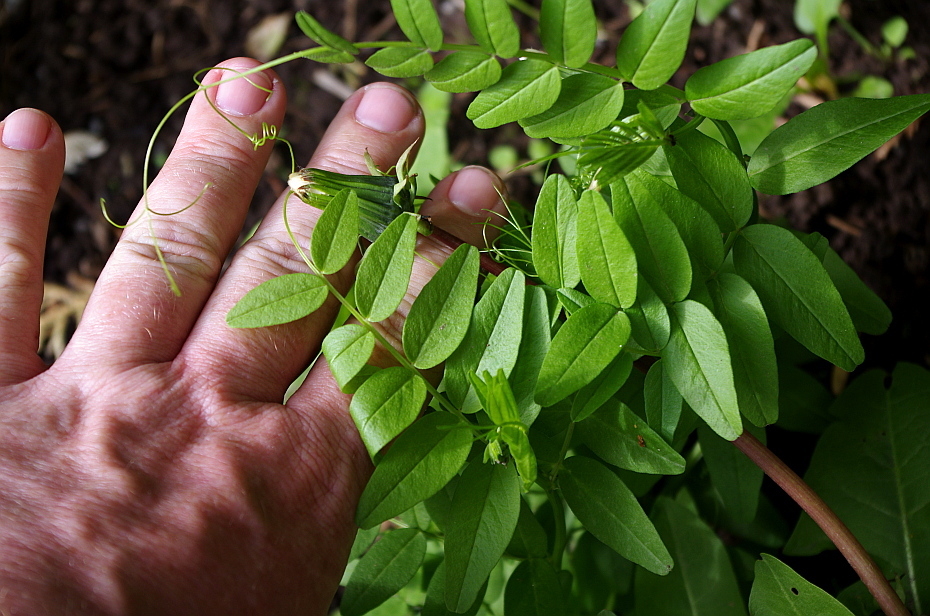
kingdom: Plantae
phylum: Tracheophyta
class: Magnoliopsida
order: Fabales
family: Fabaceae
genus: Vicia
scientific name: Vicia sepium
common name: Bush vetch
